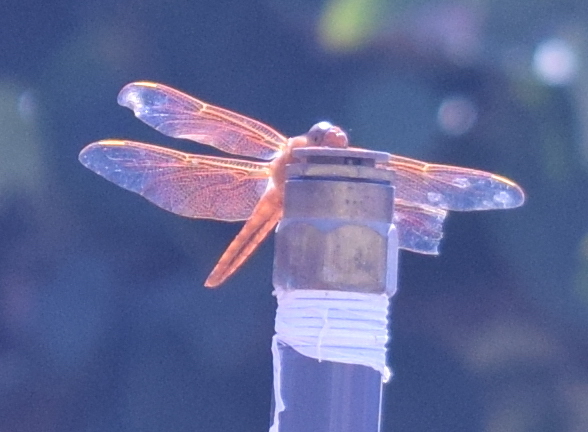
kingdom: Animalia
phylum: Arthropoda
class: Insecta
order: Odonata
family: Libellulidae
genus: Libellula
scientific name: Libellula saturata
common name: Flame skimmer
